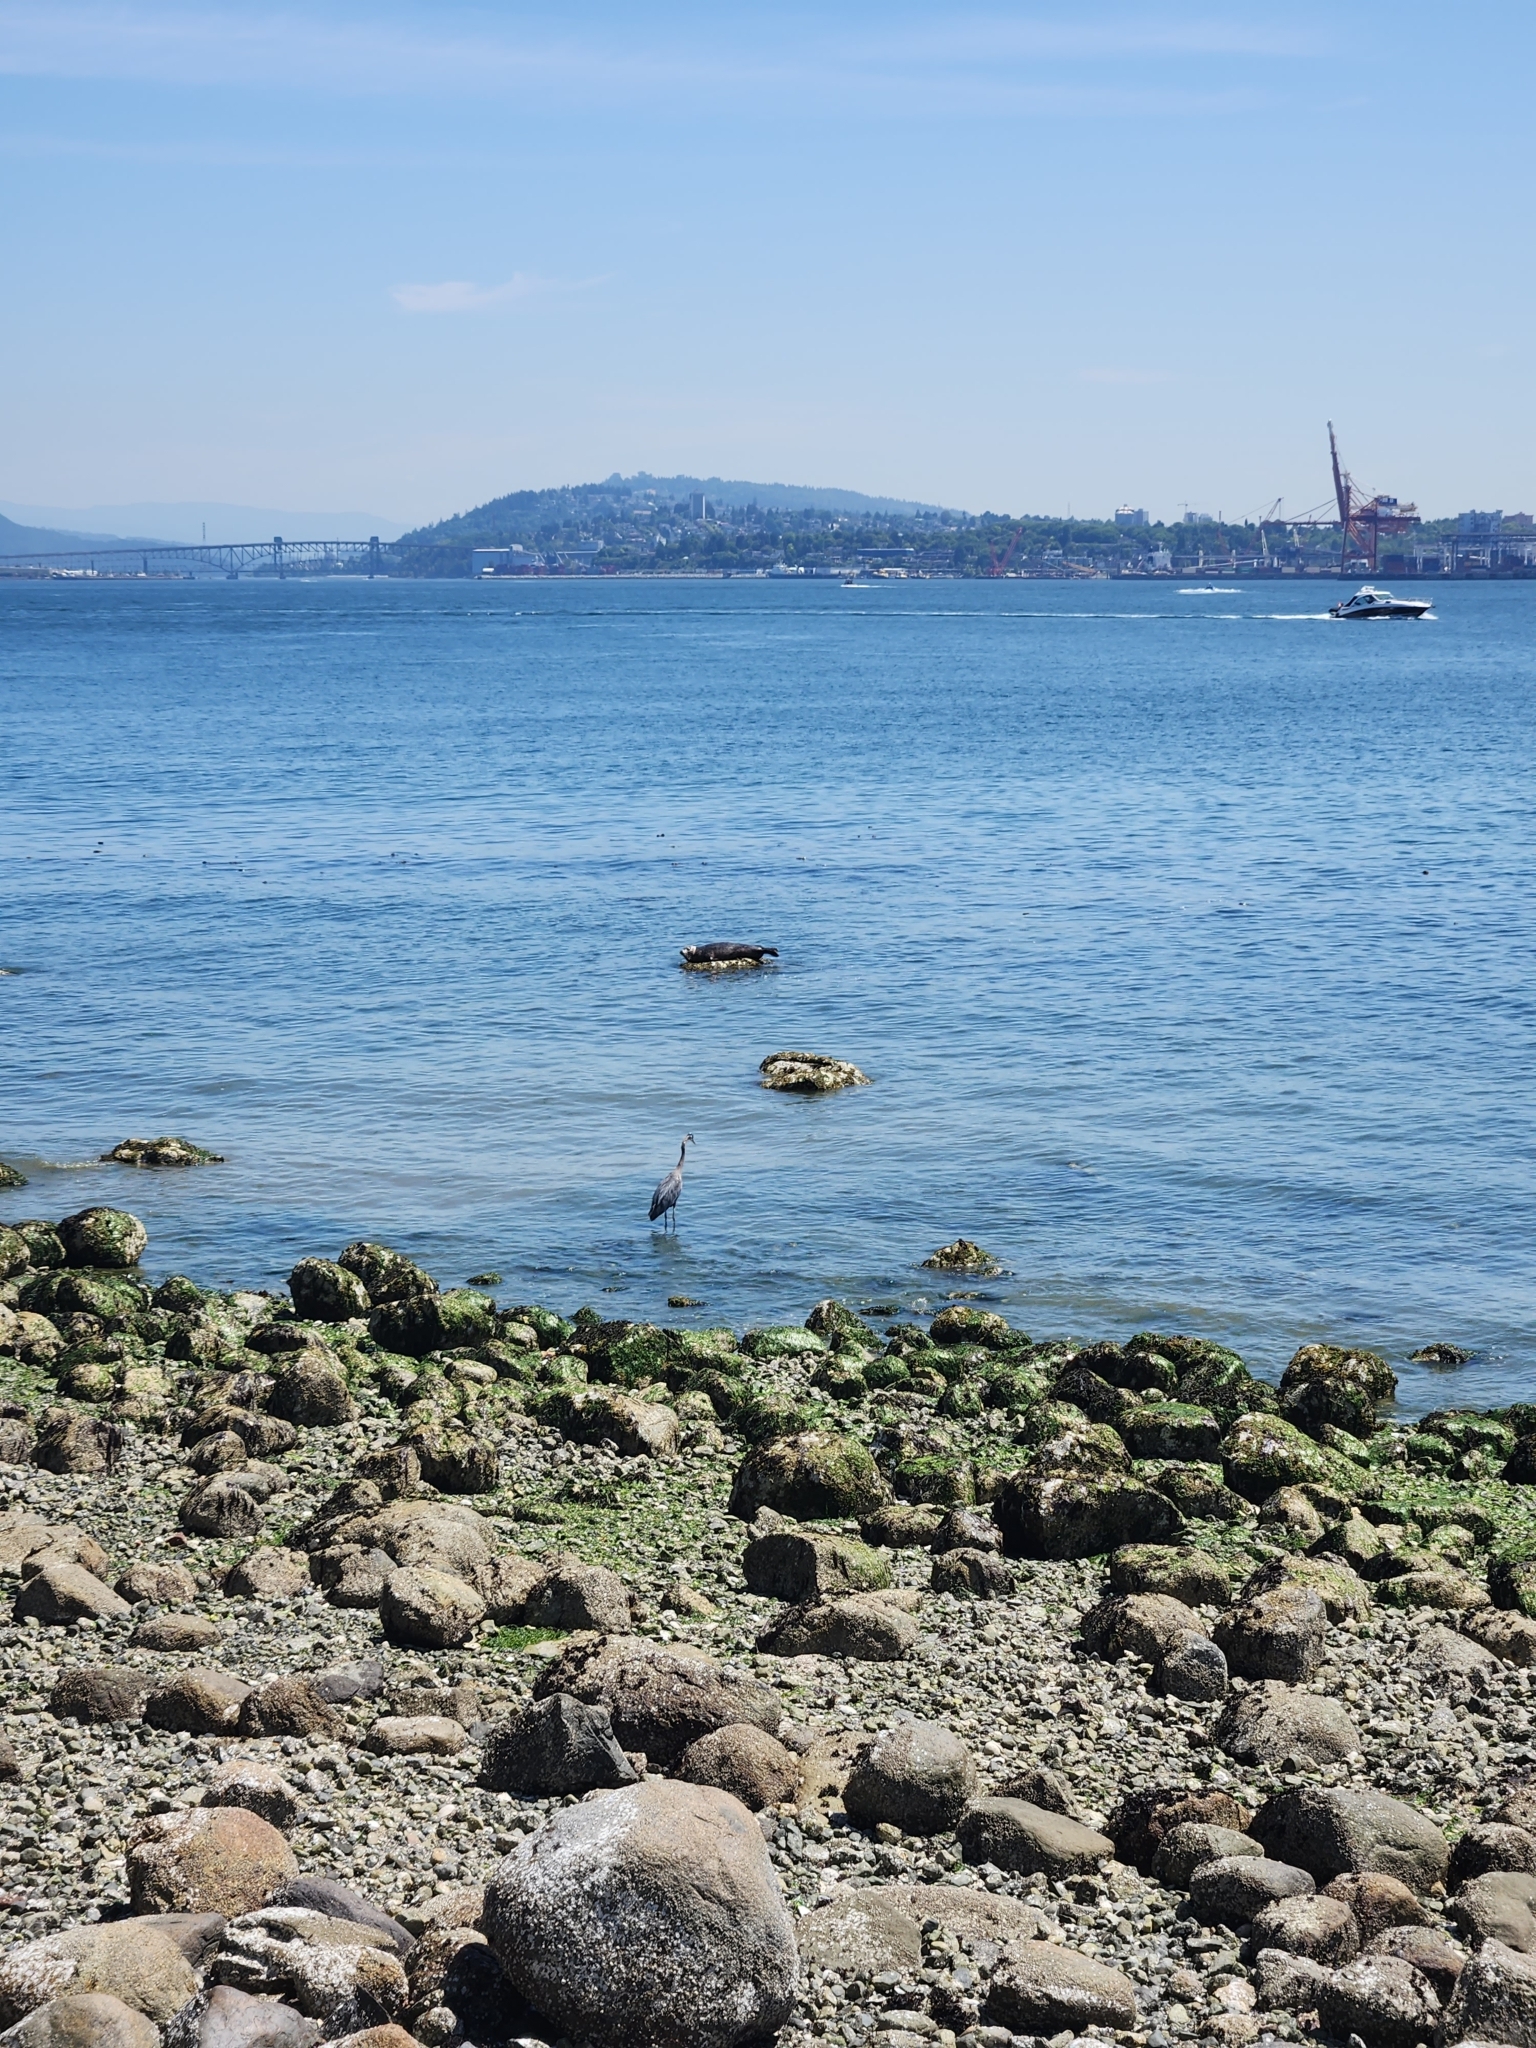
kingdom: Animalia
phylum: Chordata
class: Mammalia
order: Carnivora
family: Phocidae
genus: Phoca
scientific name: Phoca vitulina
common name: Harbor seal
